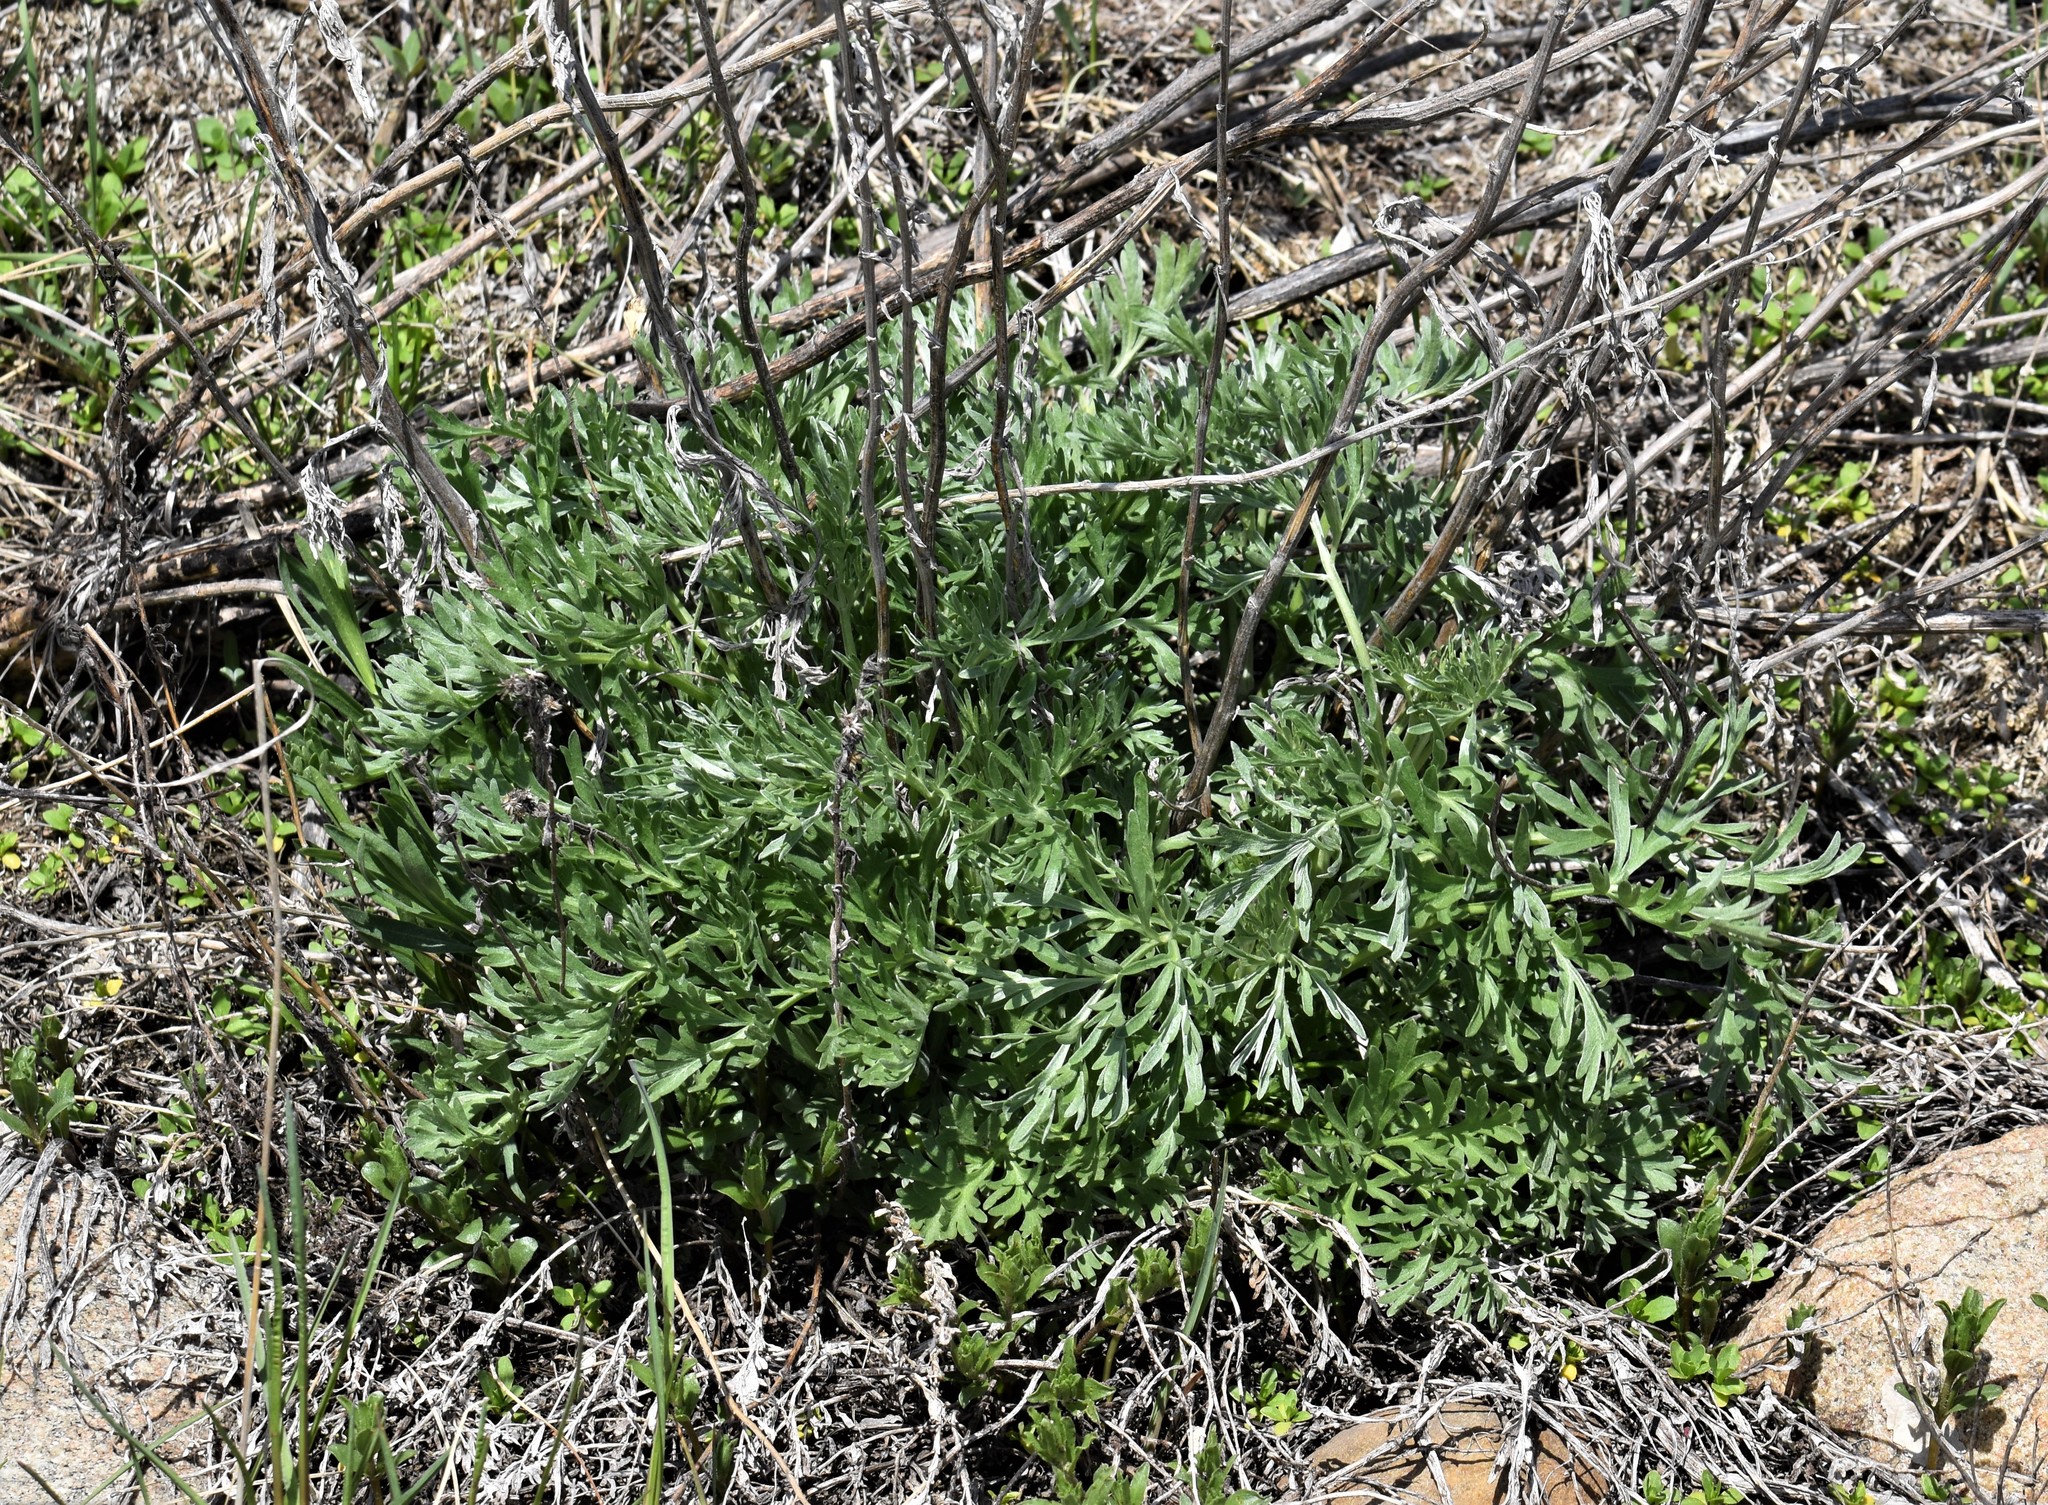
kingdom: Plantae
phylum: Tracheophyta
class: Magnoliopsida
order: Asterales
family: Asteraceae
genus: Artemisia
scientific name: Artemisia absinthium
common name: Wormwood
